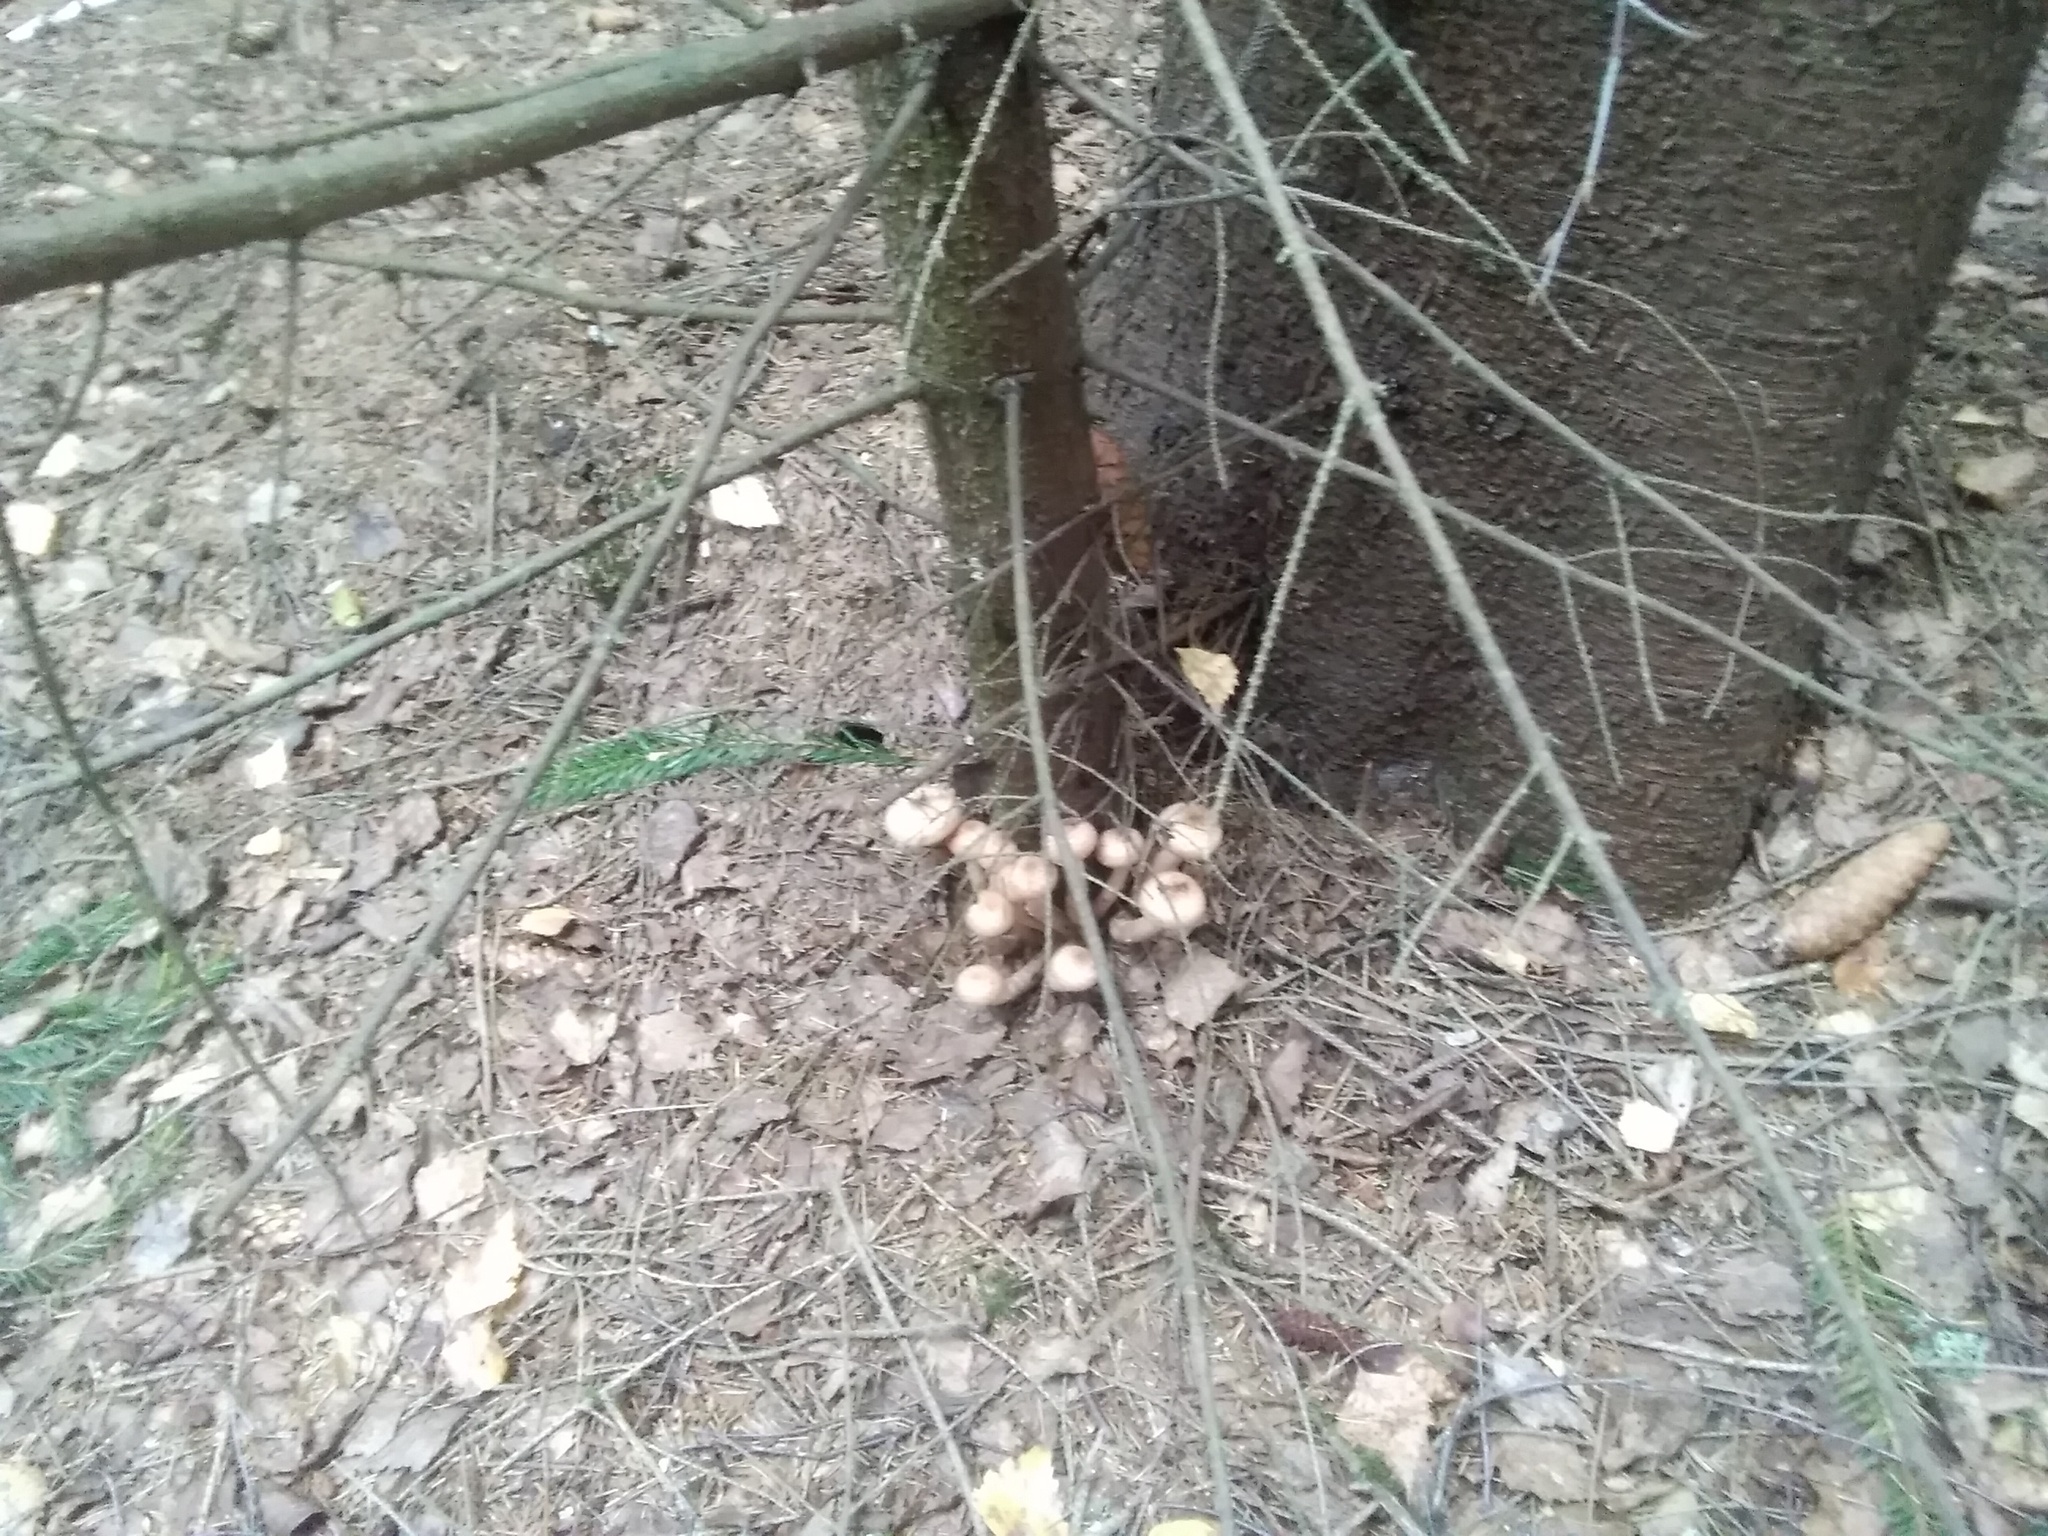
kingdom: Fungi
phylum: Basidiomycota
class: Agaricomycetes
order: Agaricales
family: Physalacriaceae
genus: Armillaria
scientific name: Armillaria mellea
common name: Honey fungus
